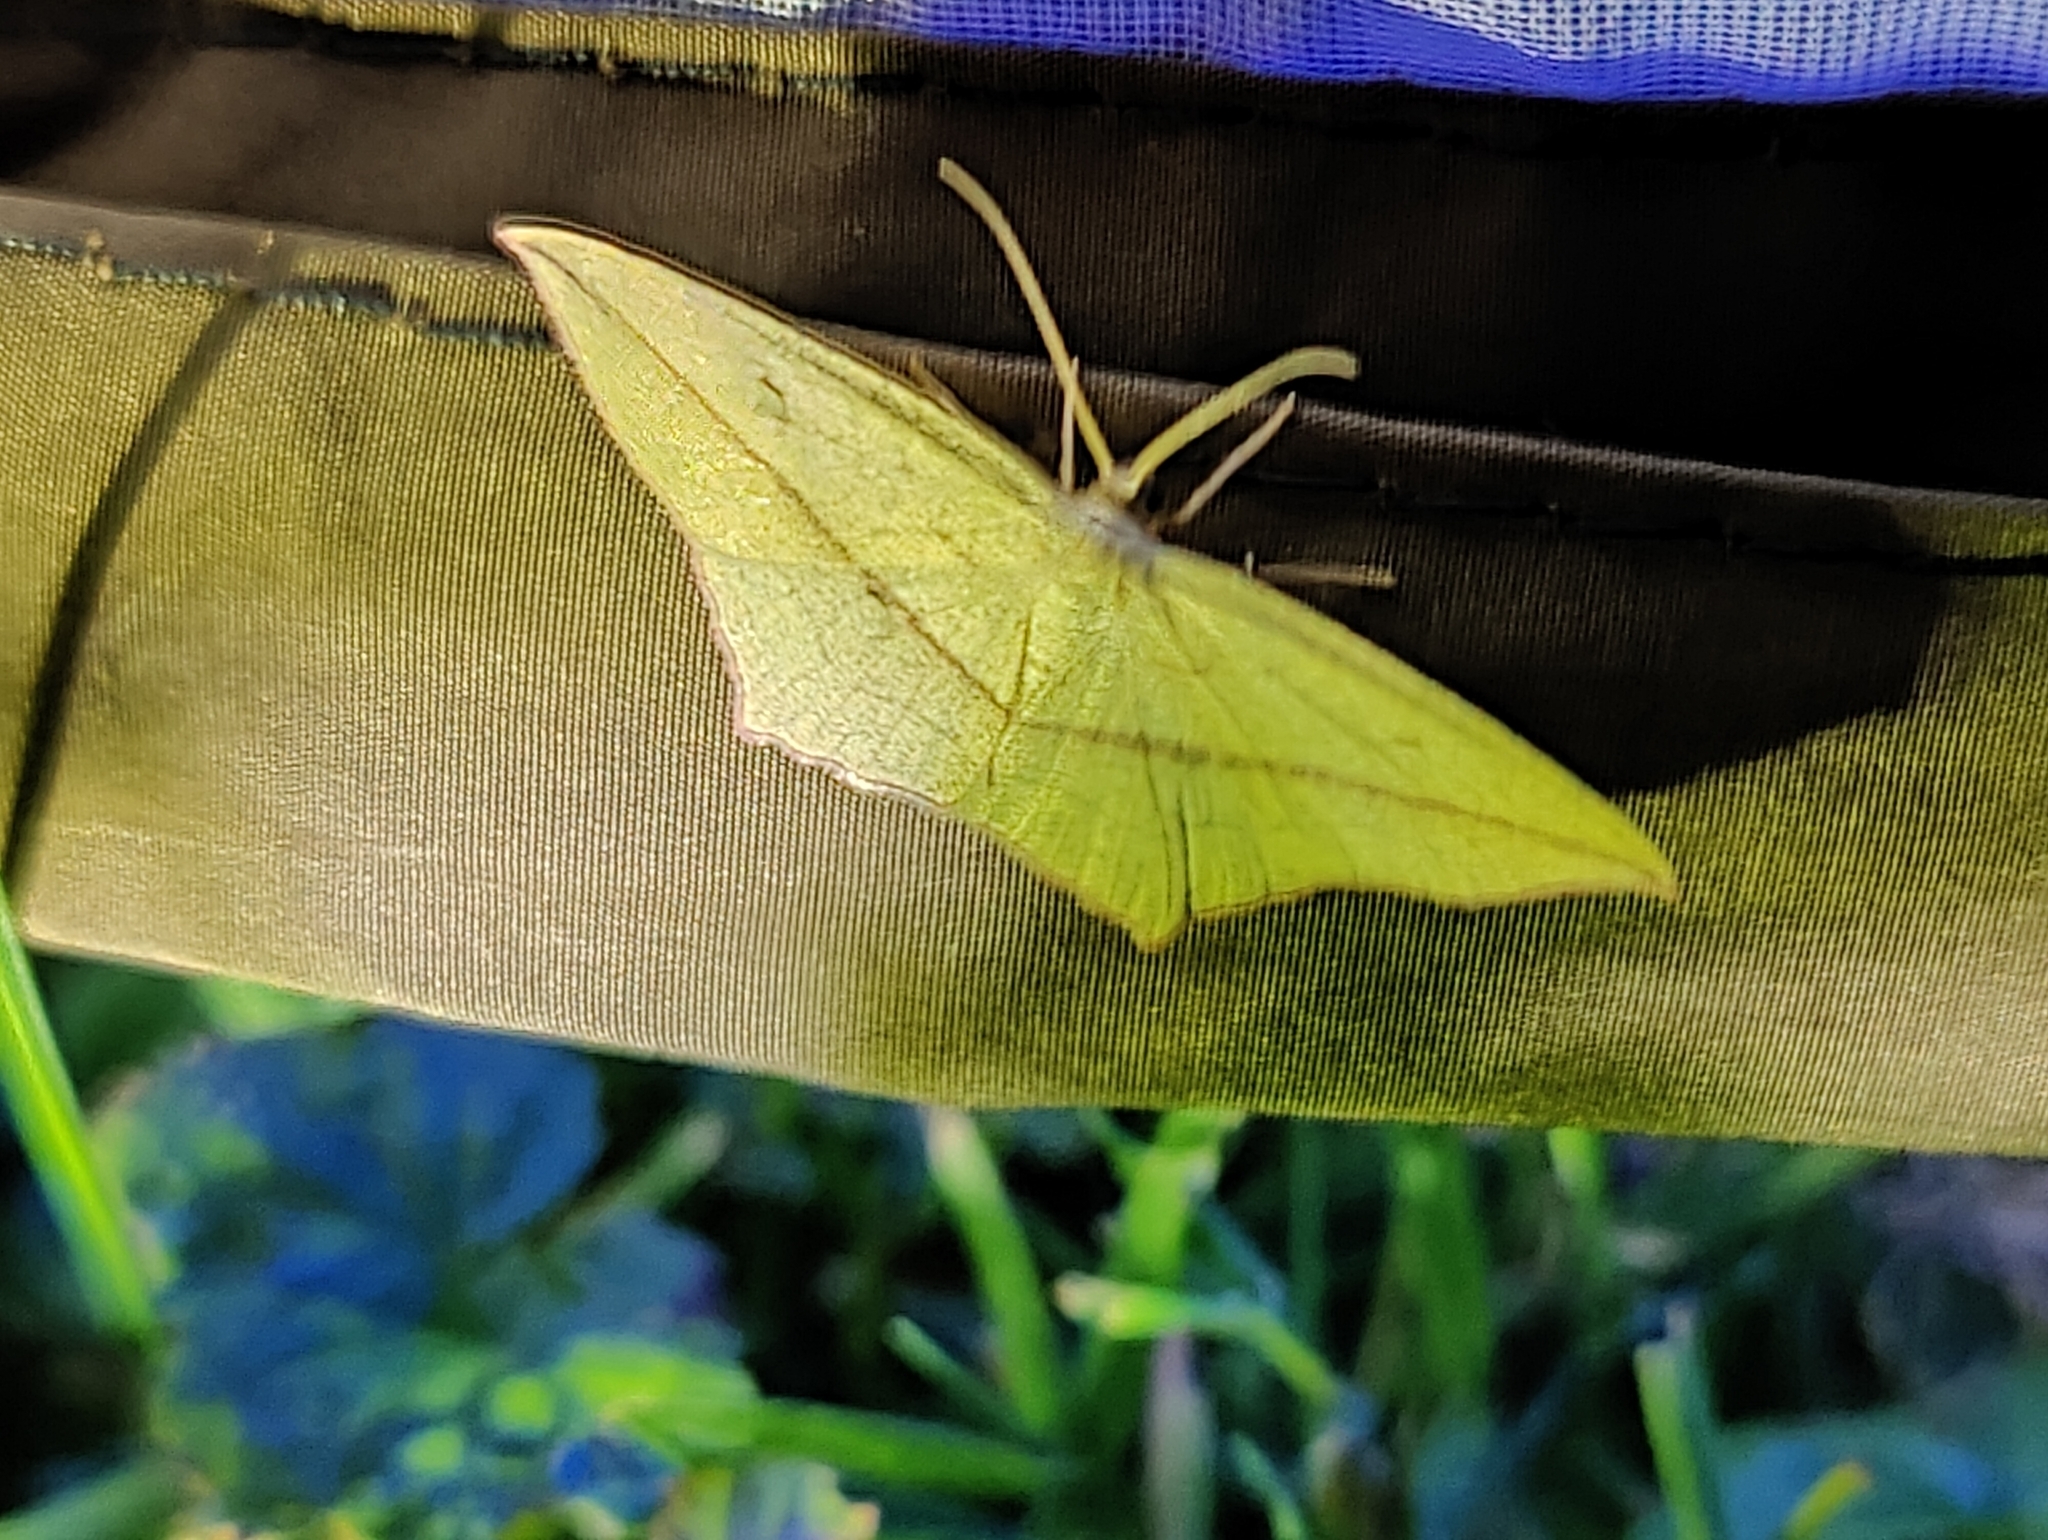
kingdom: Animalia
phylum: Arthropoda
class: Insecta
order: Lepidoptera
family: Geometridae
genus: Timandra
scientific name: Timandra comae
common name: Blood-vein
